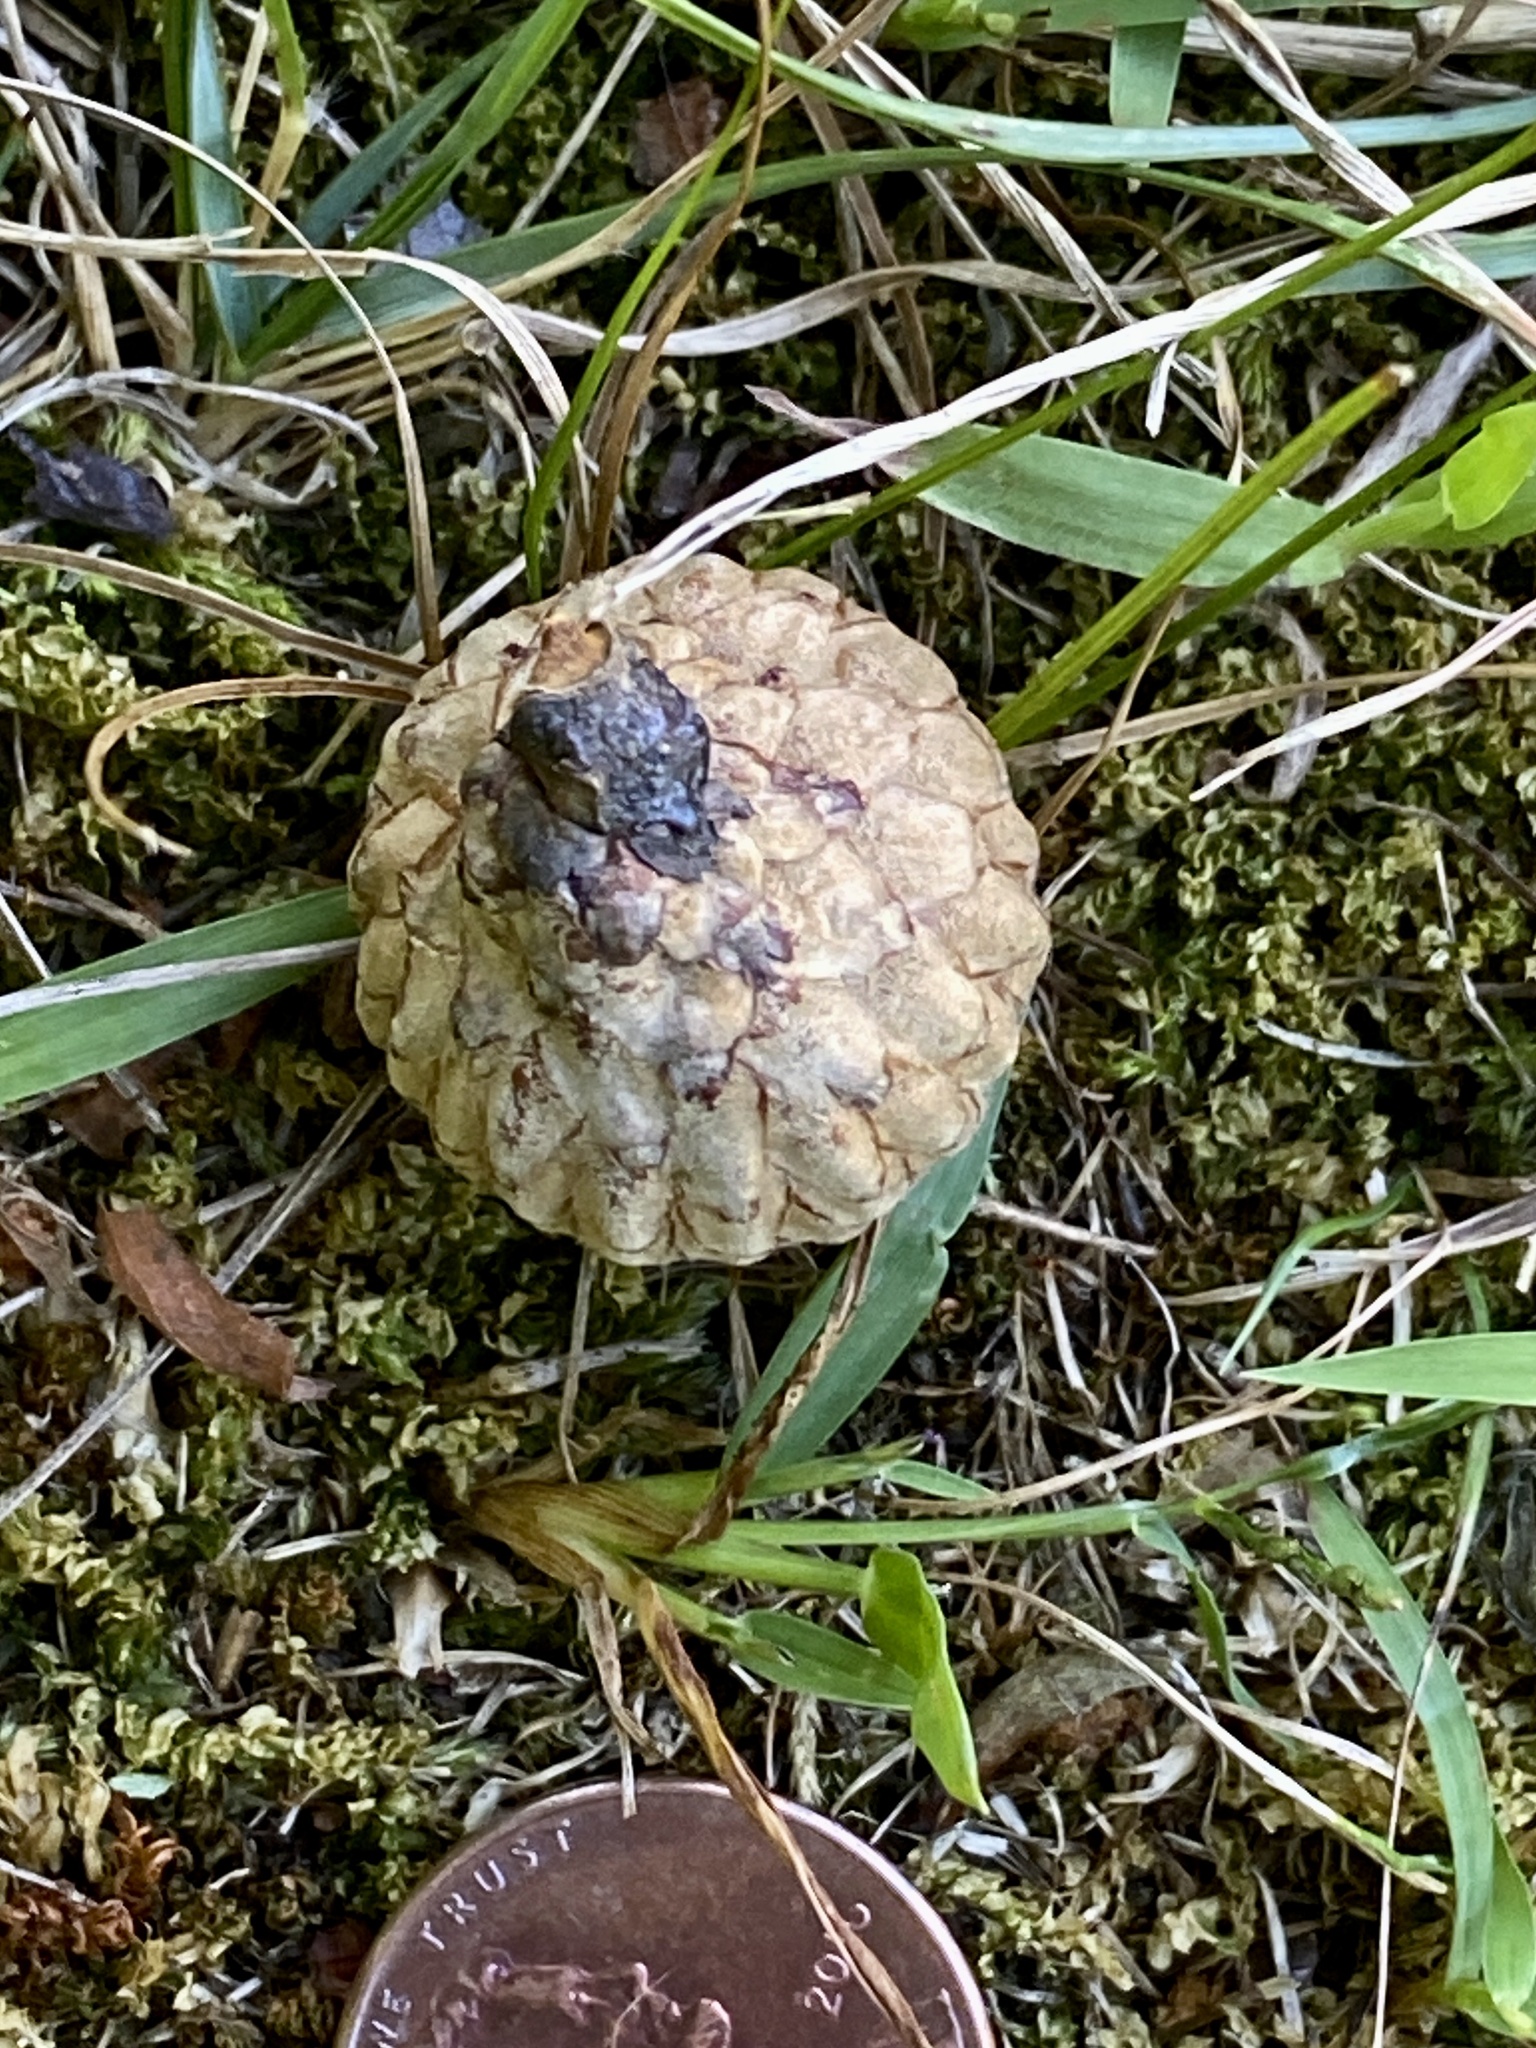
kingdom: Plantae
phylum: Tracheophyta
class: Magnoliopsida
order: Fagales
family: Fagaceae
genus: Quercus
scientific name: Quercus velutina
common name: Black oak
